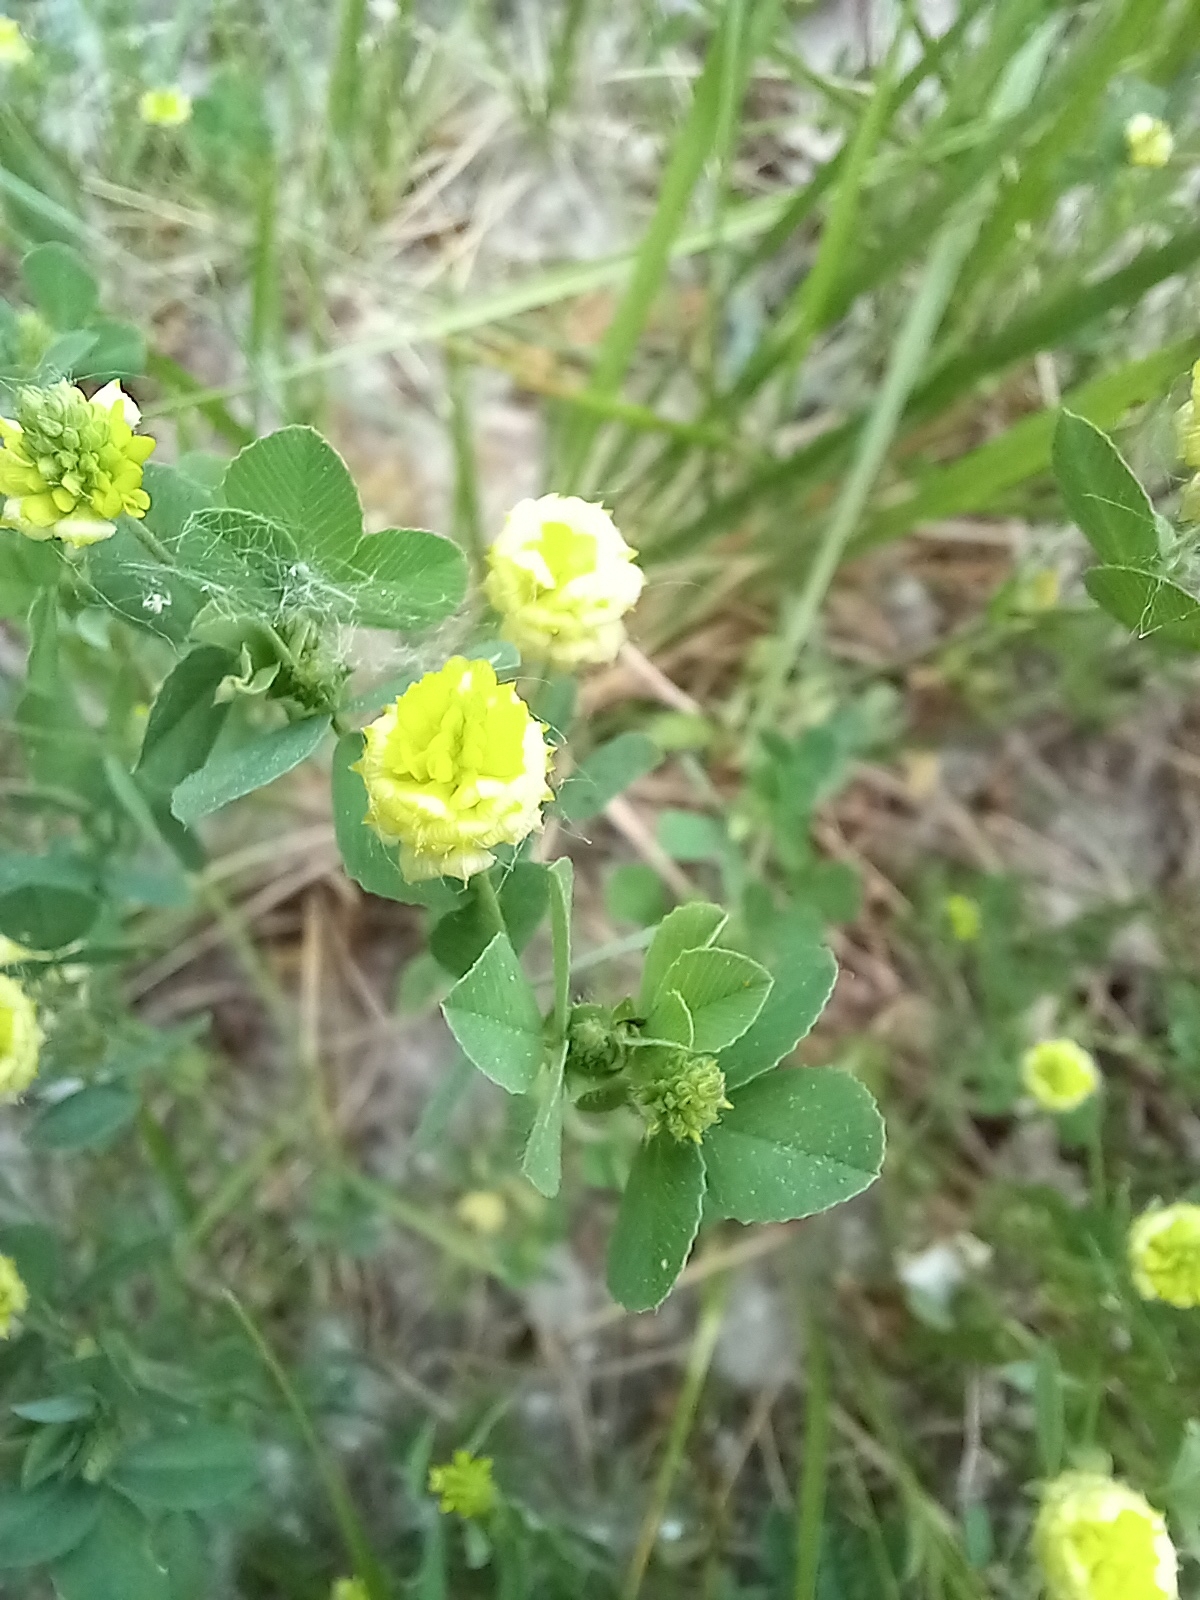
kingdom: Plantae
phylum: Tracheophyta
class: Magnoliopsida
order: Fabales
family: Fabaceae
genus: Trifolium
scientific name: Trifolium campestre
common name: Field clover
